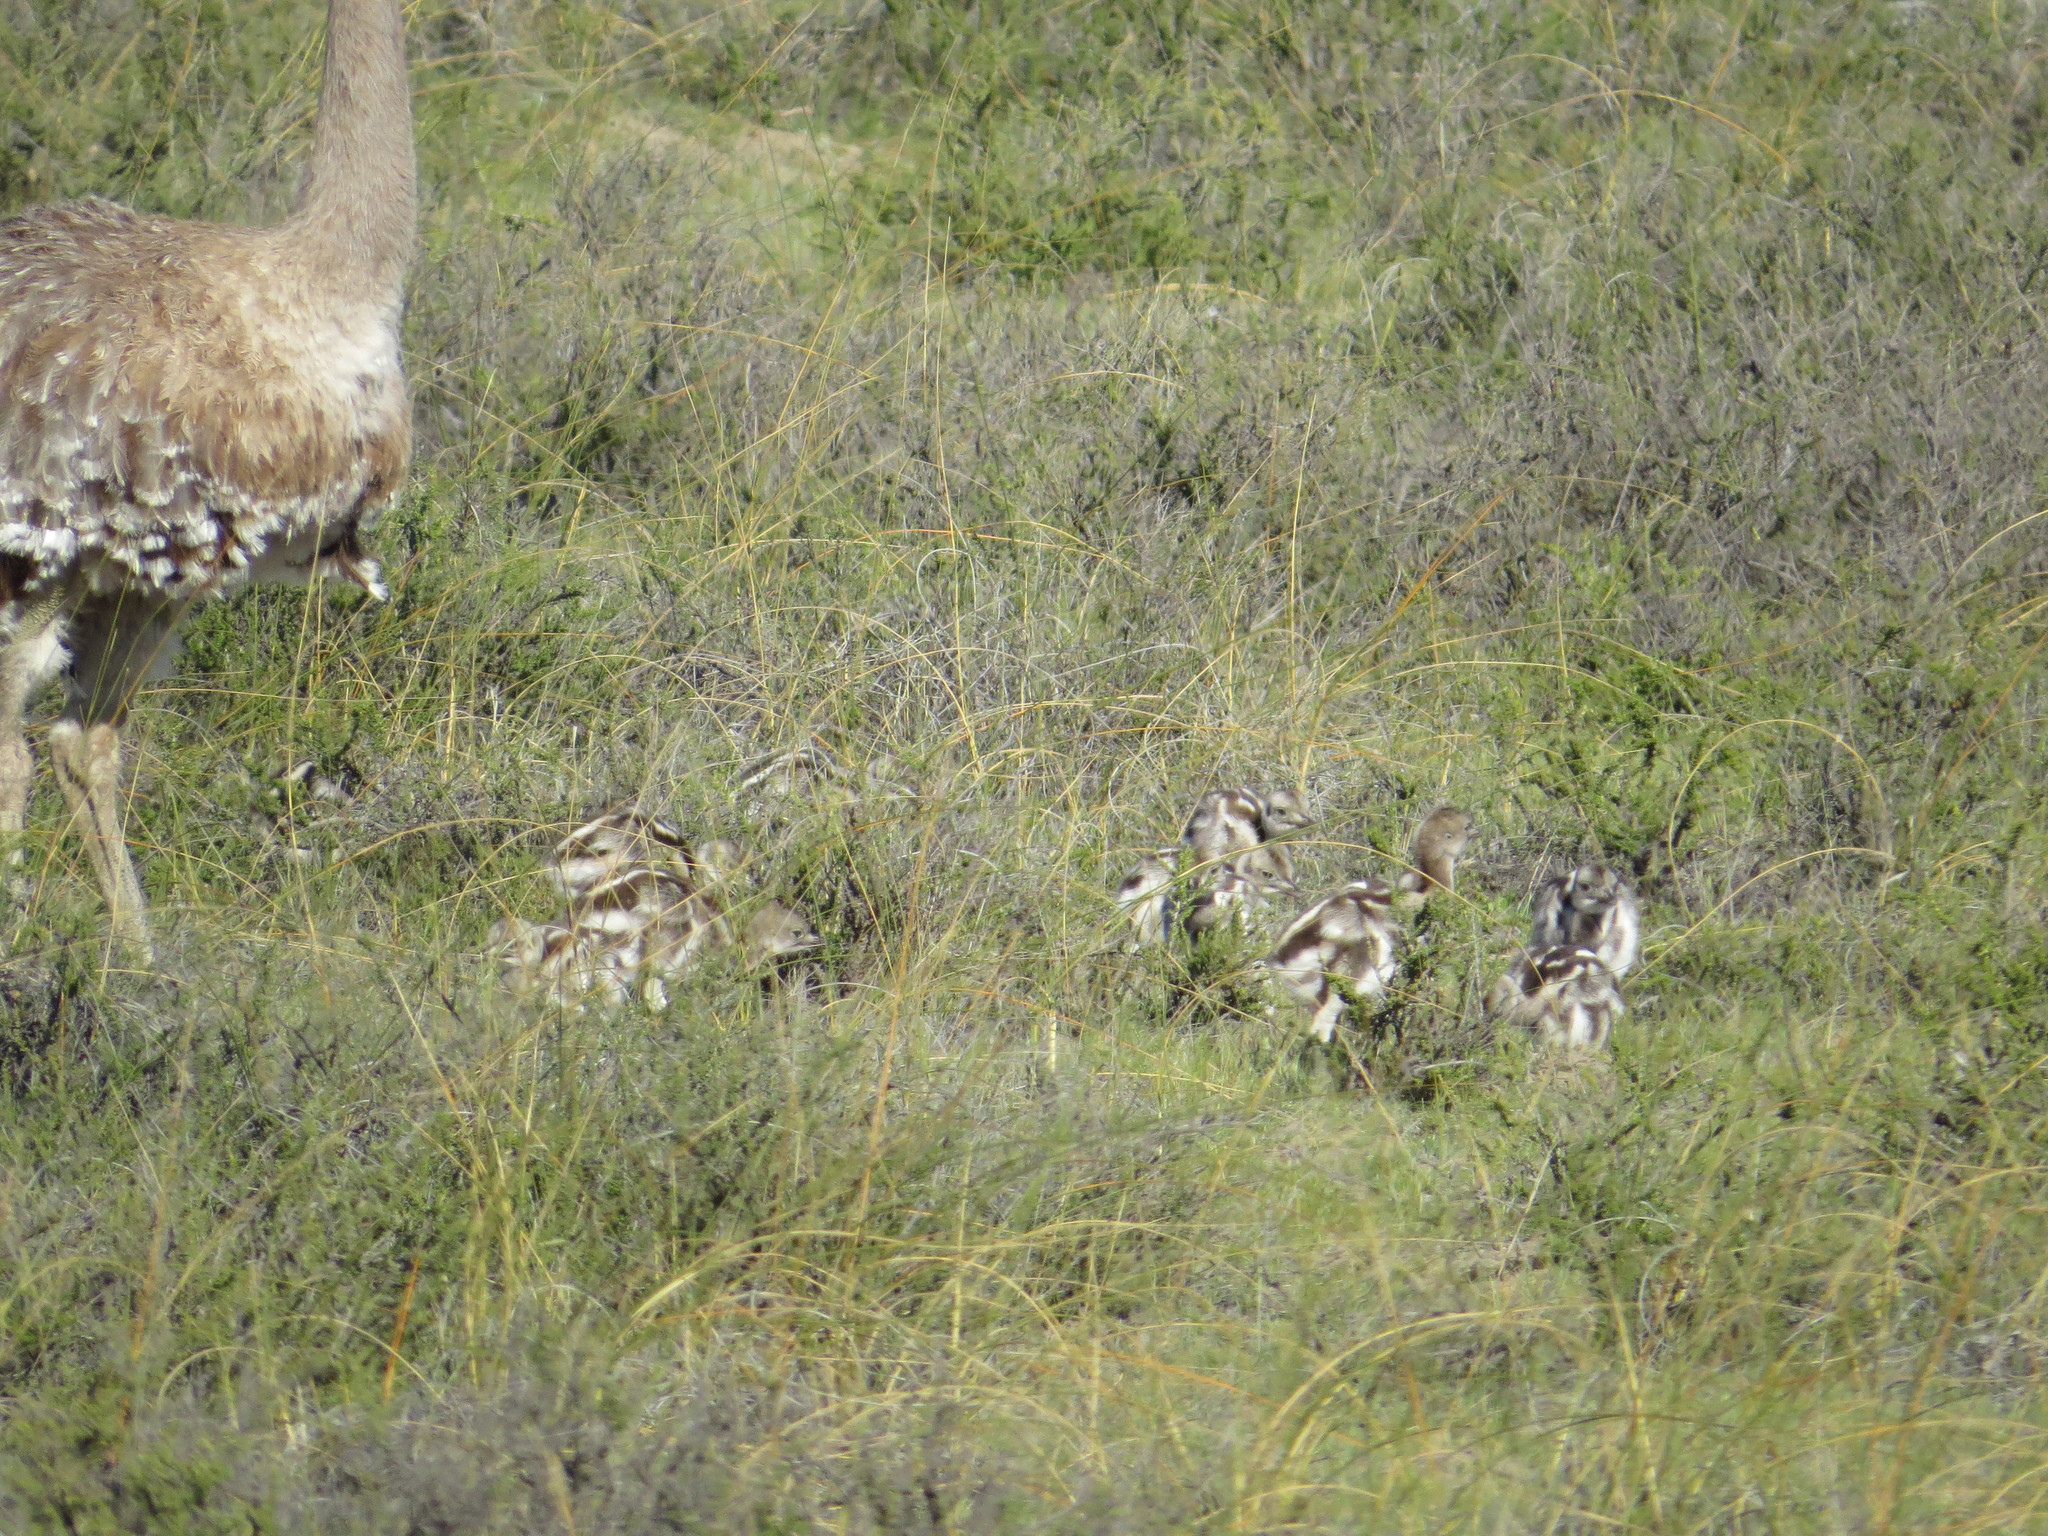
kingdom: Animalia
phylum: Chordata
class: Aves
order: Rheiformes
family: Rheidae
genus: Rhea
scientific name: Rhea pennata
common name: Lesser rhea
